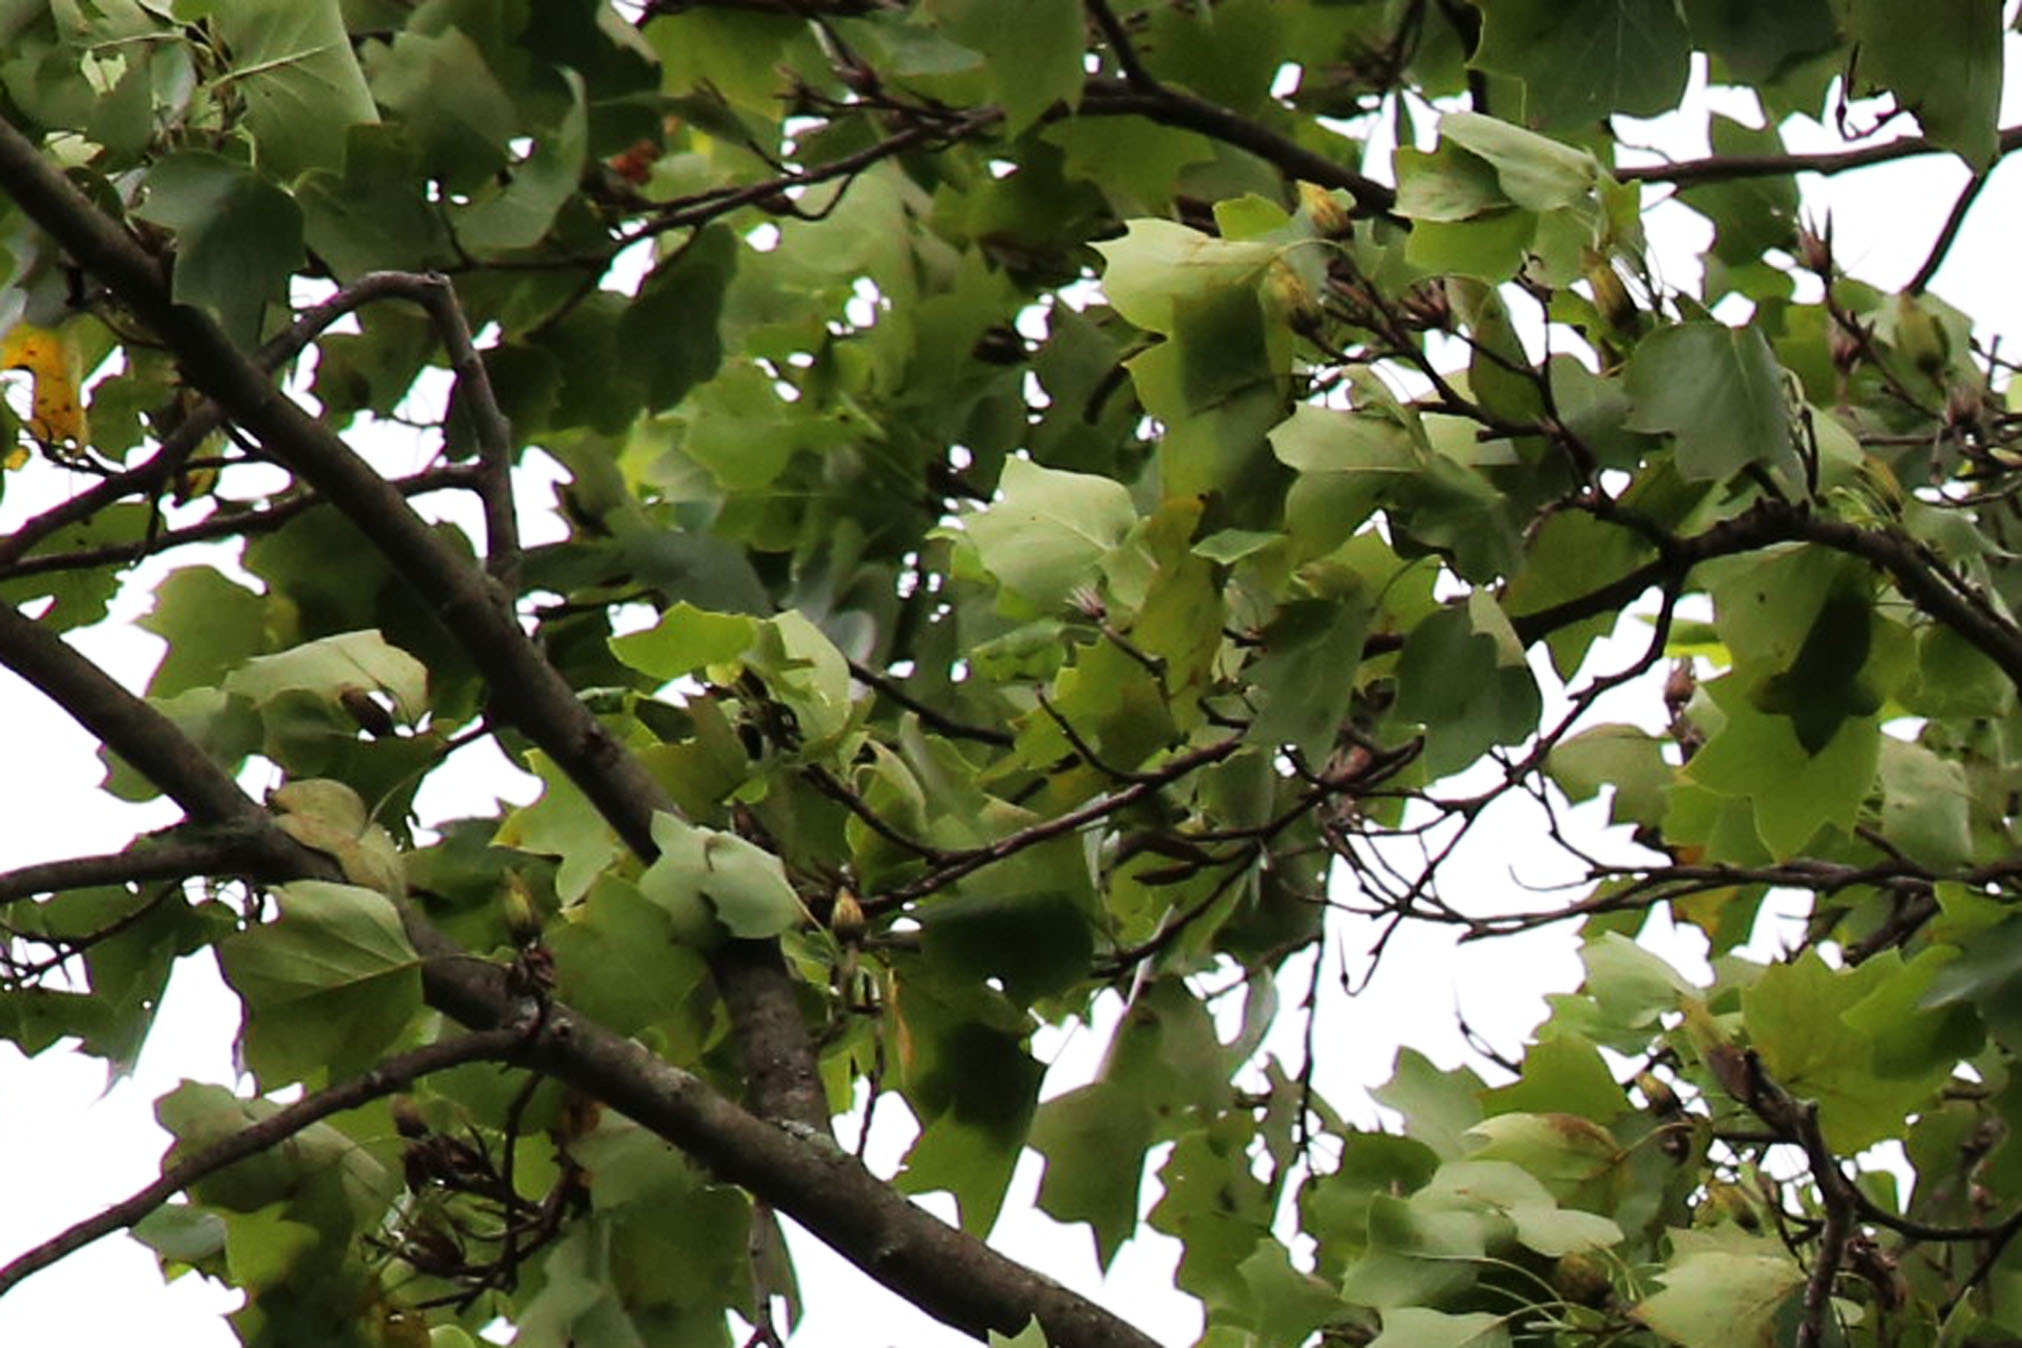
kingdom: Plantae
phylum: Tracheophyta
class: Magnoliopsida
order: Magnoliales
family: Magnoliaceae
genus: Liriodendron
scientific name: Liriodendron tulipifera
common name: Tulip tree
